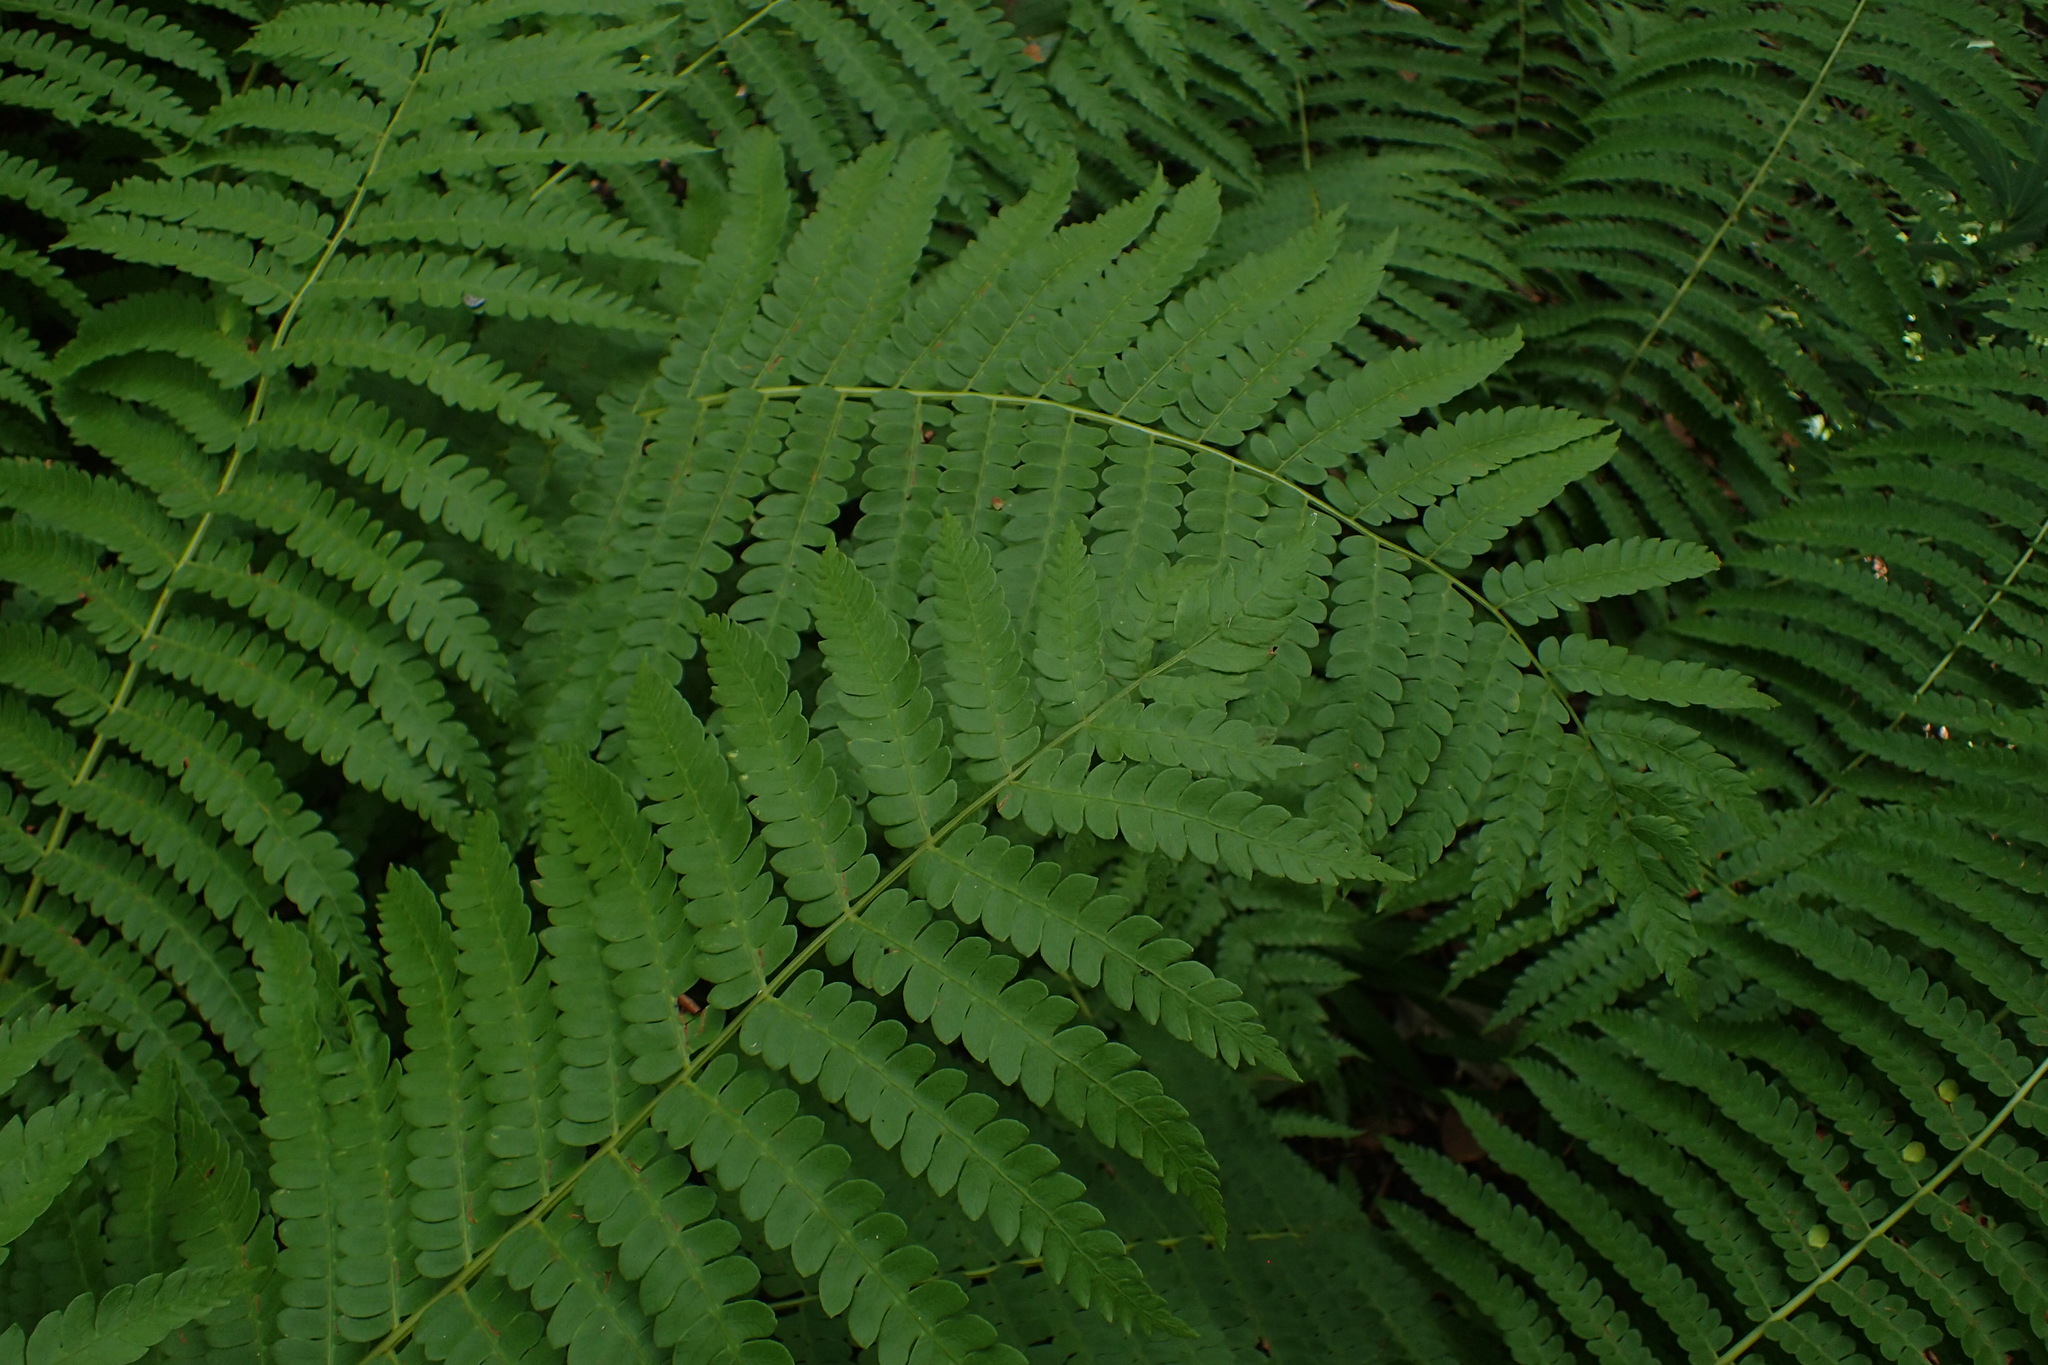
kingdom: Plantae
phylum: Tracheophyta
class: Polypodiopsida
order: Osmundales
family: Osmundaceae
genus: Osmundastrum
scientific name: Osmundastrum cinnamomeum
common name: Cinnamon fern
